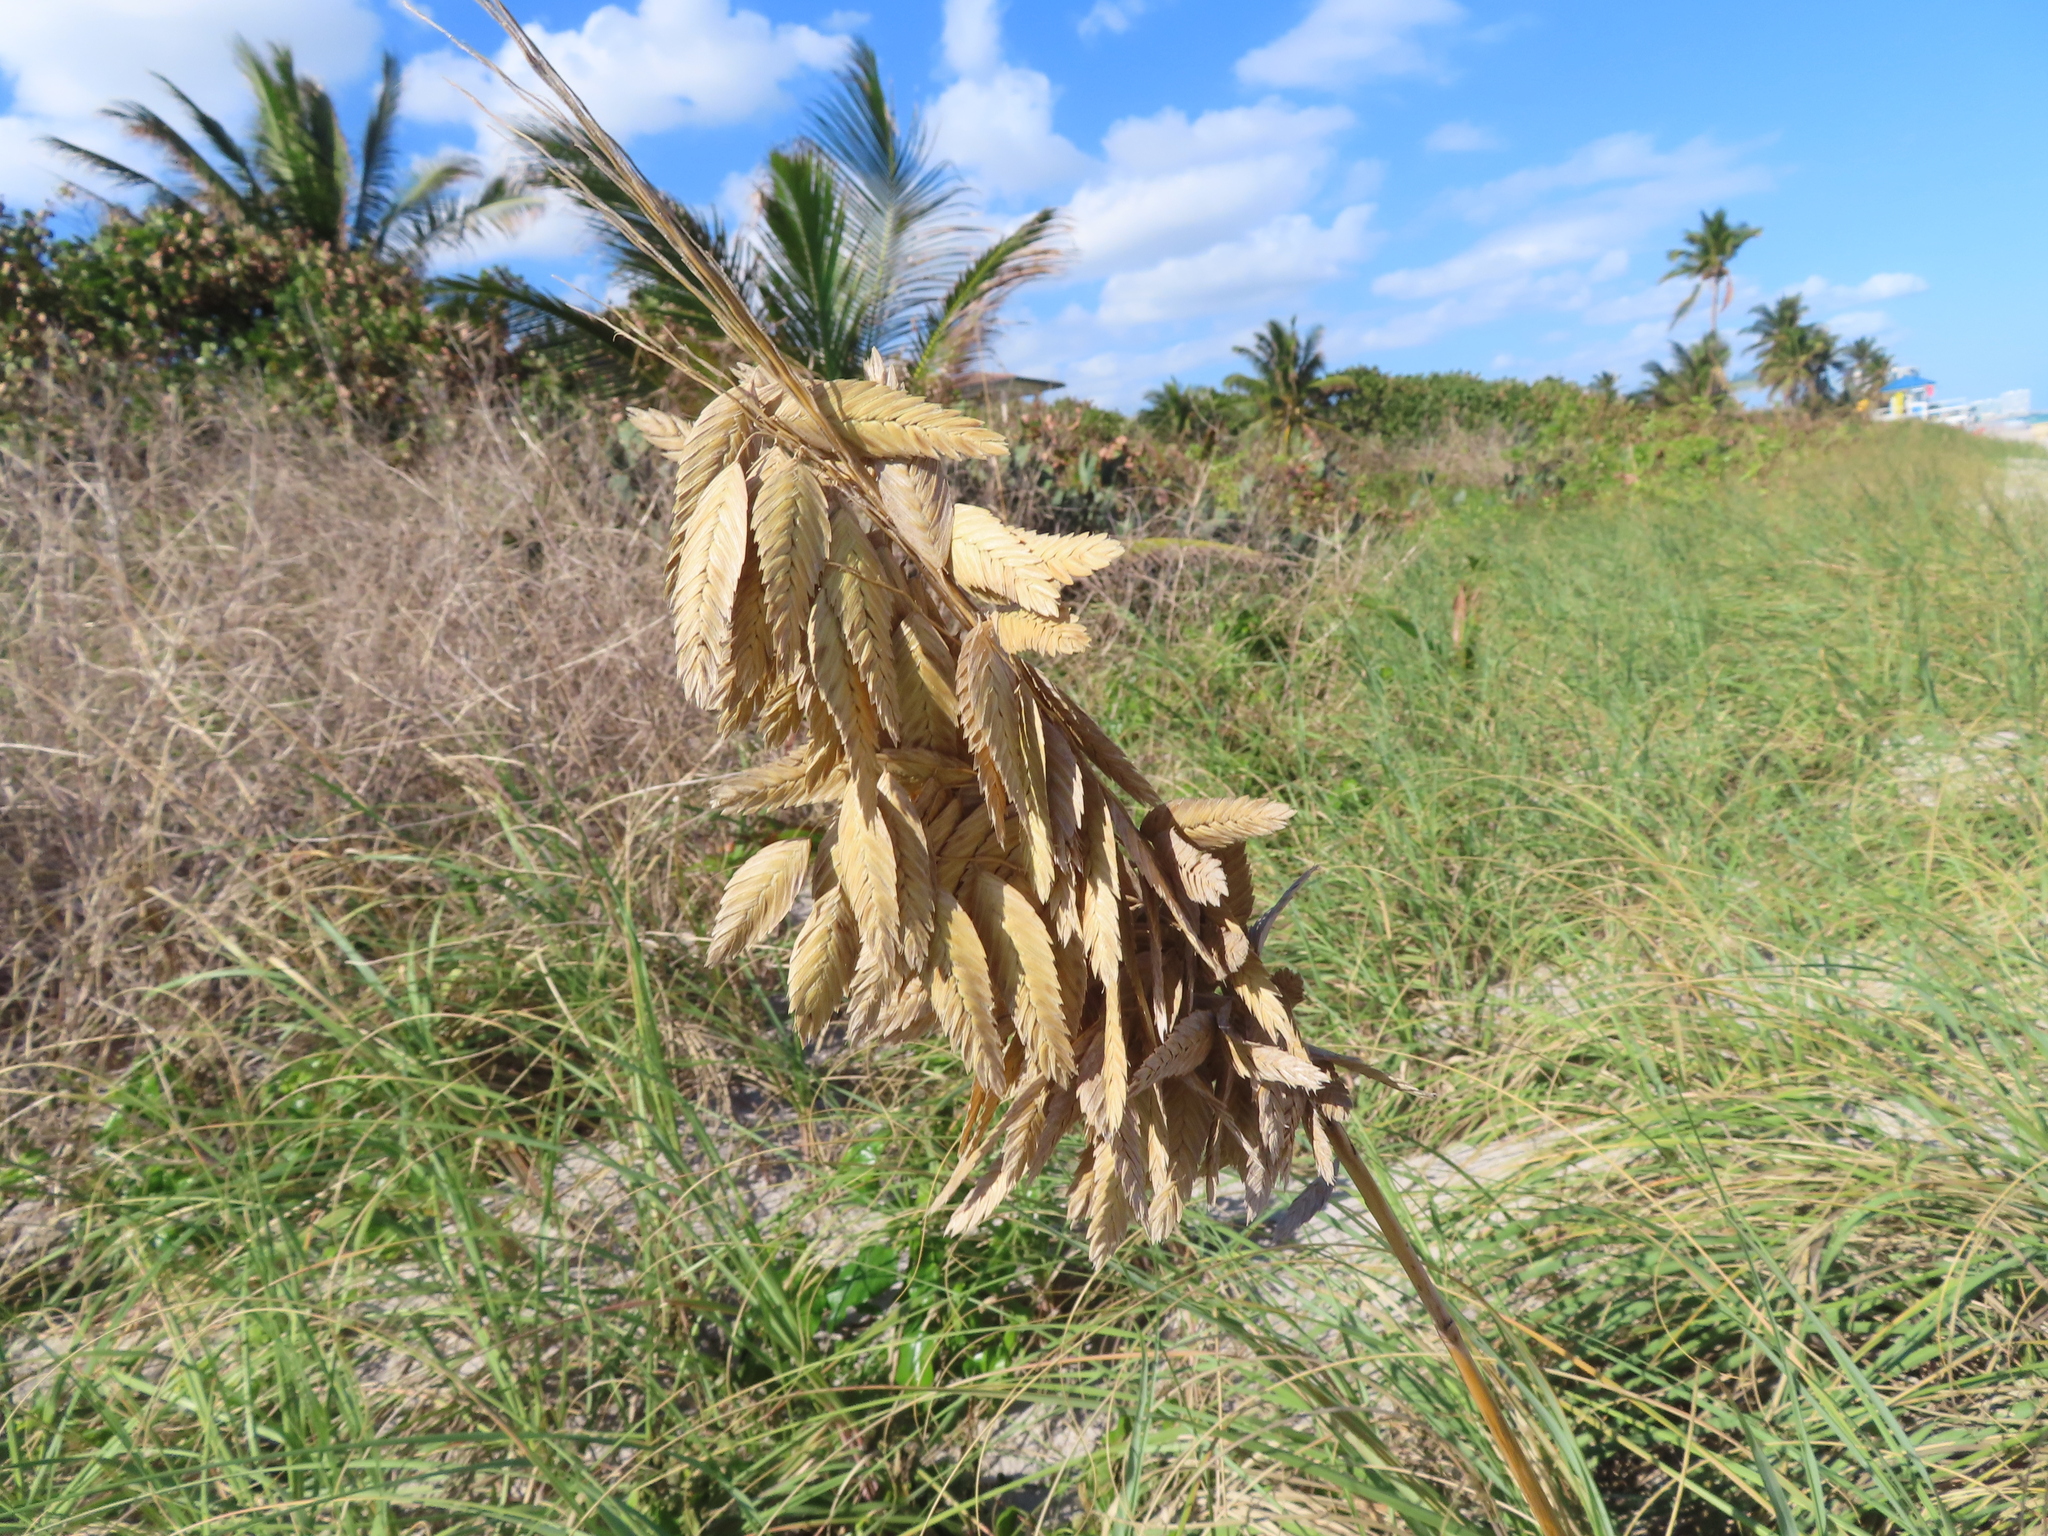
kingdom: Plantae
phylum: Tracheophyta
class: Liliopsida
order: Poales
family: Poaceae
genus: Uniola
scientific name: Uniola paniculata
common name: Seaside-oats
